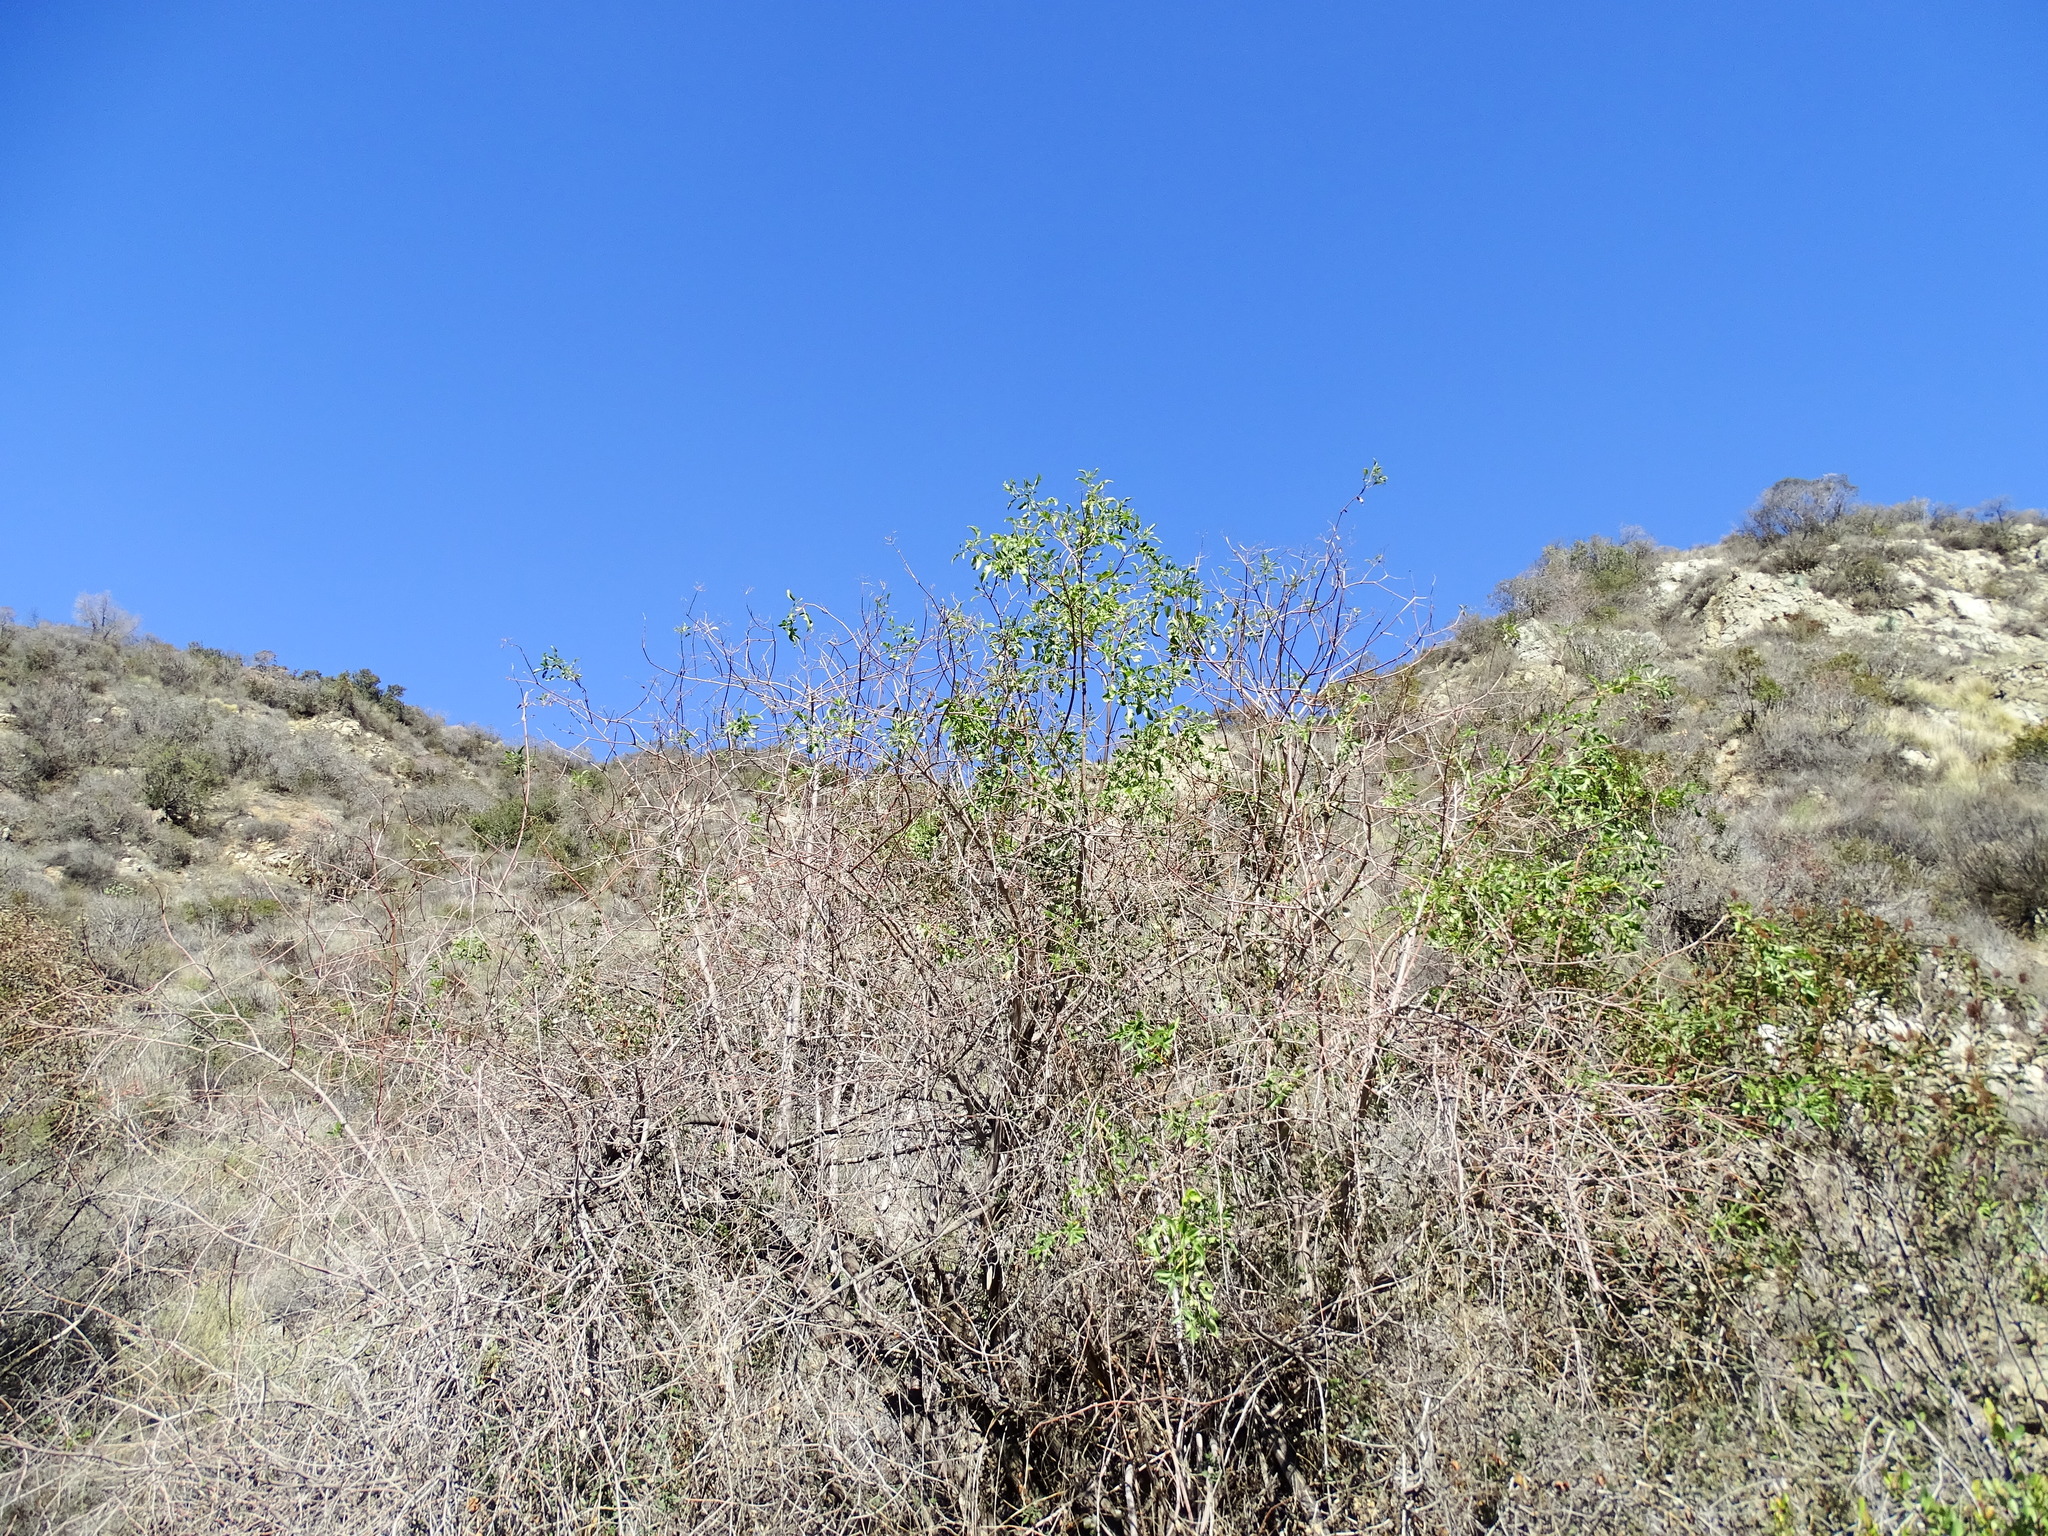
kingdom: Plantae
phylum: Tracheophyta
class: Magnoliopsida
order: Dipsacales
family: Viburnaceae
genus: Sambucus
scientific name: Sambucus cerulea
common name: Blue elder
